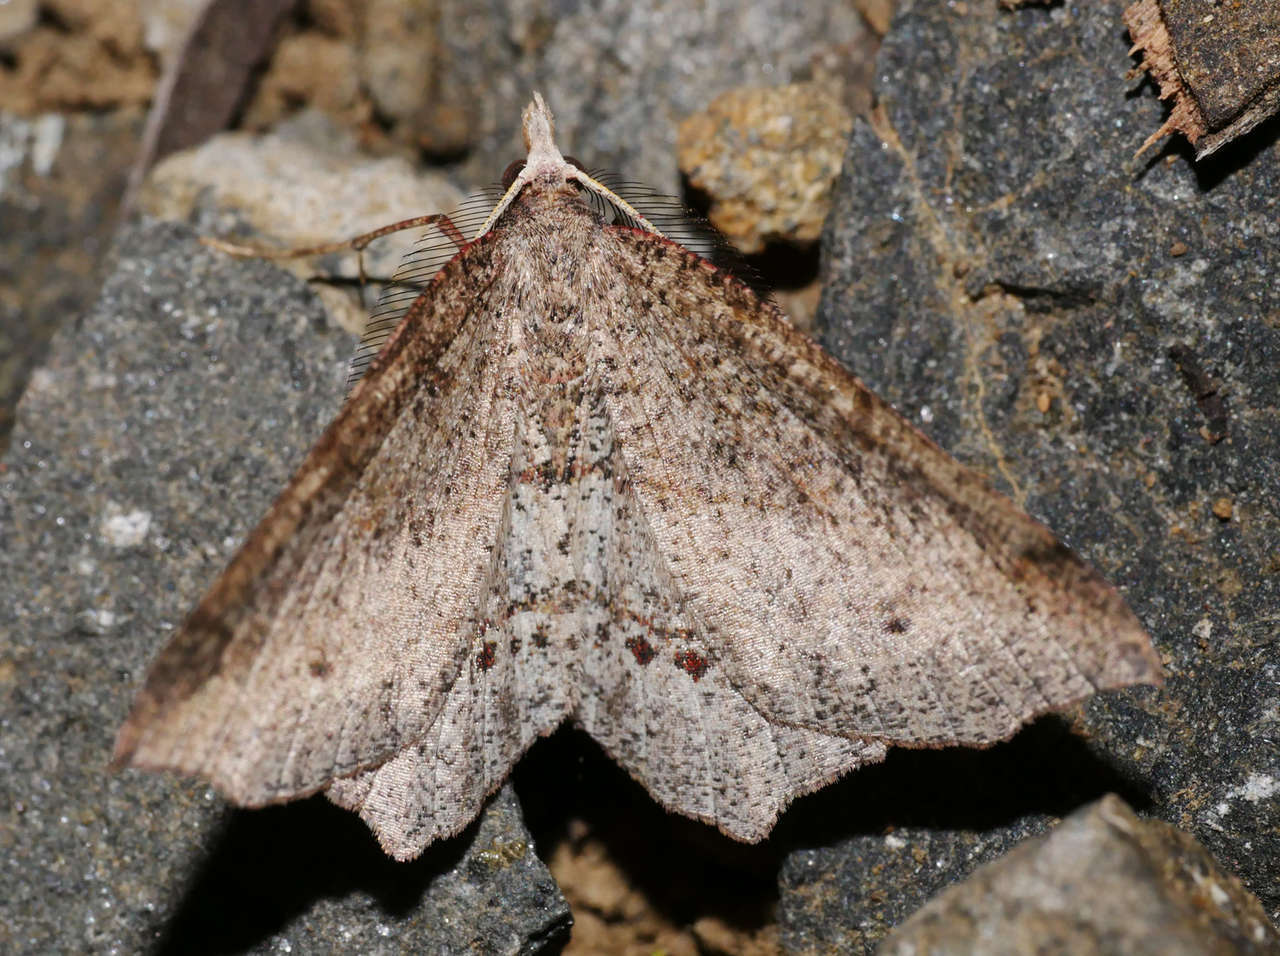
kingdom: Animalia
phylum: Arthropoda
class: Insecta
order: Lepidoptera
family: Geometridae
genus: Rhinodia
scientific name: Rhinodia rostraria
